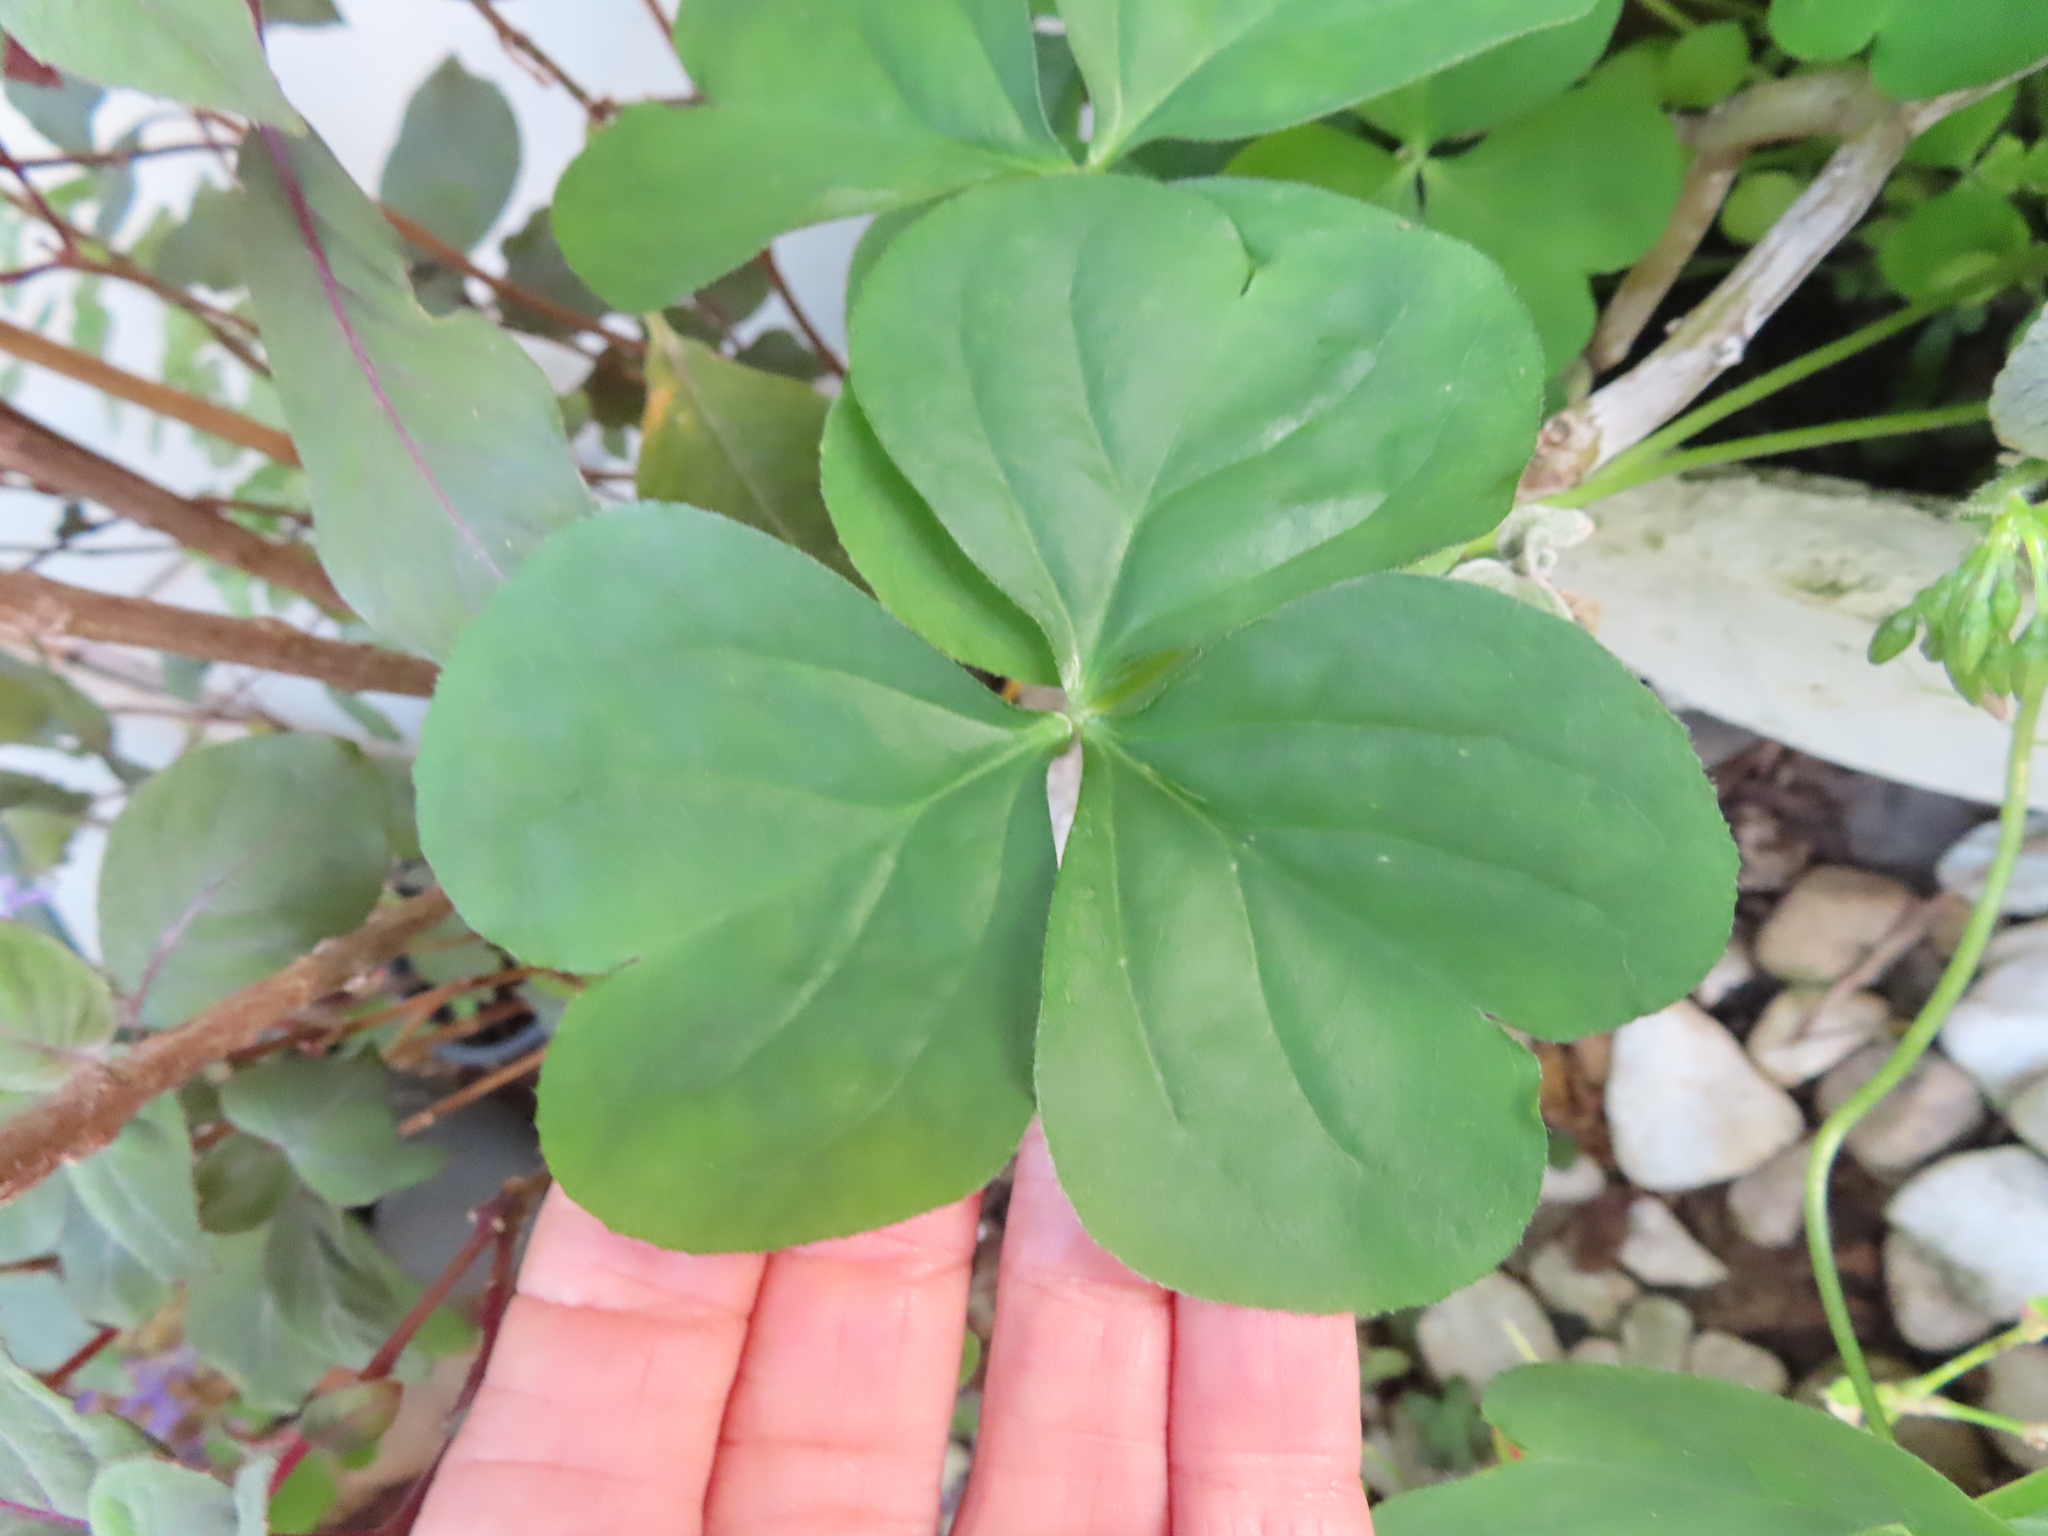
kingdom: Plantae
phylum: Tracheophyta
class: Magnoliopsida
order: Oxalidales
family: Oxalidaceae
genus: Oxalis
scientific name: Oxalis debilis
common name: Large-flowered pink-sorrel
